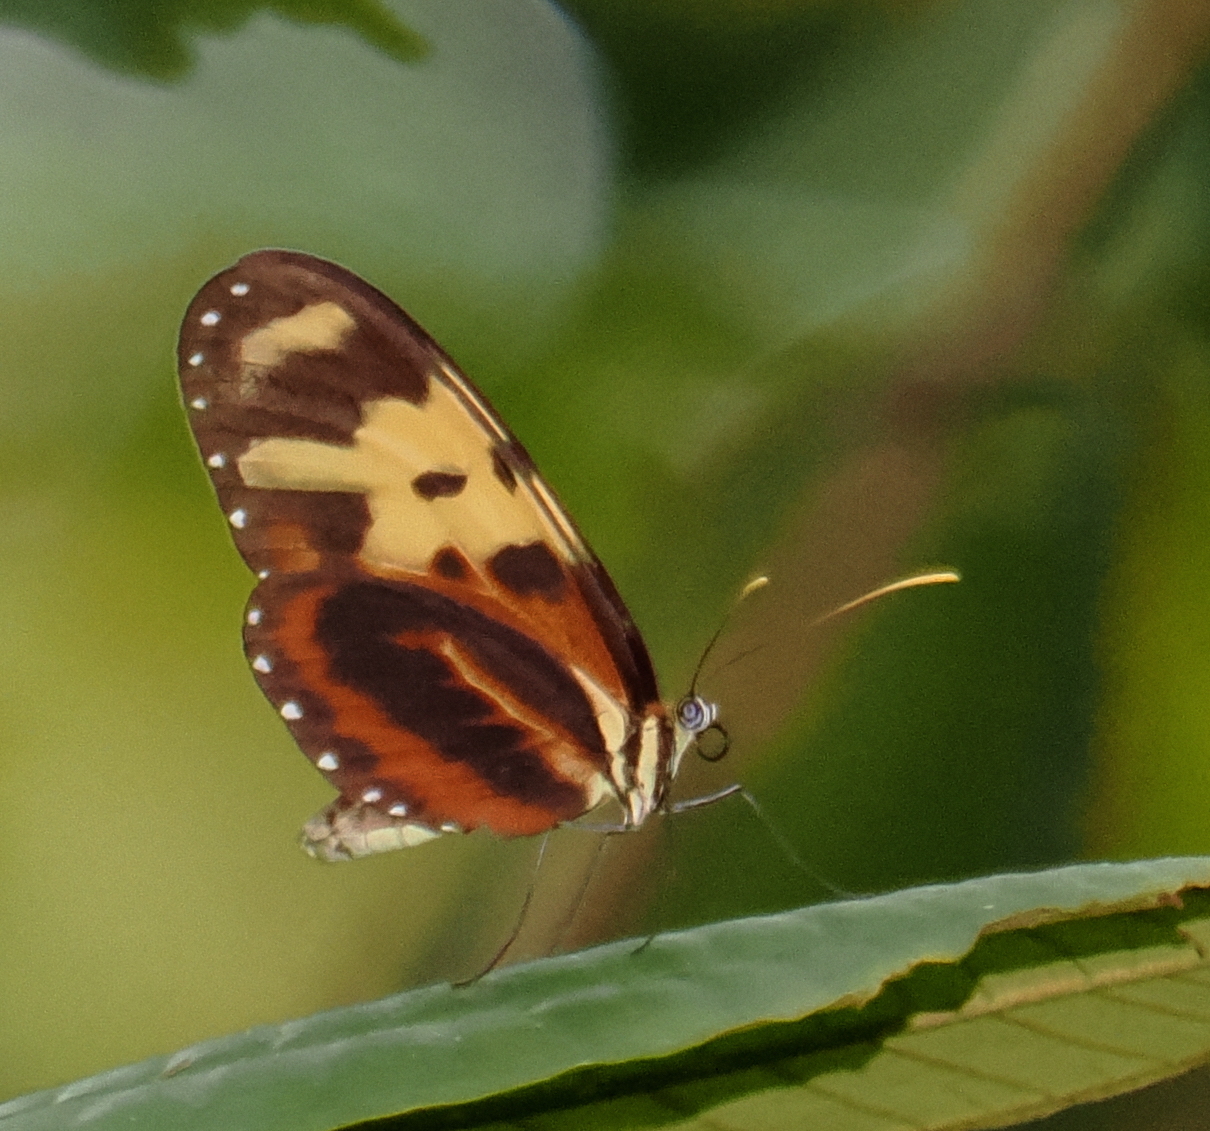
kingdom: Animalia
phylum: Arthropoda
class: Insecta
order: Lepidoptera
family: Nymphalidae
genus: Mechanitis
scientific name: Mechanitis polymnia
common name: Disturbed tigerwing
